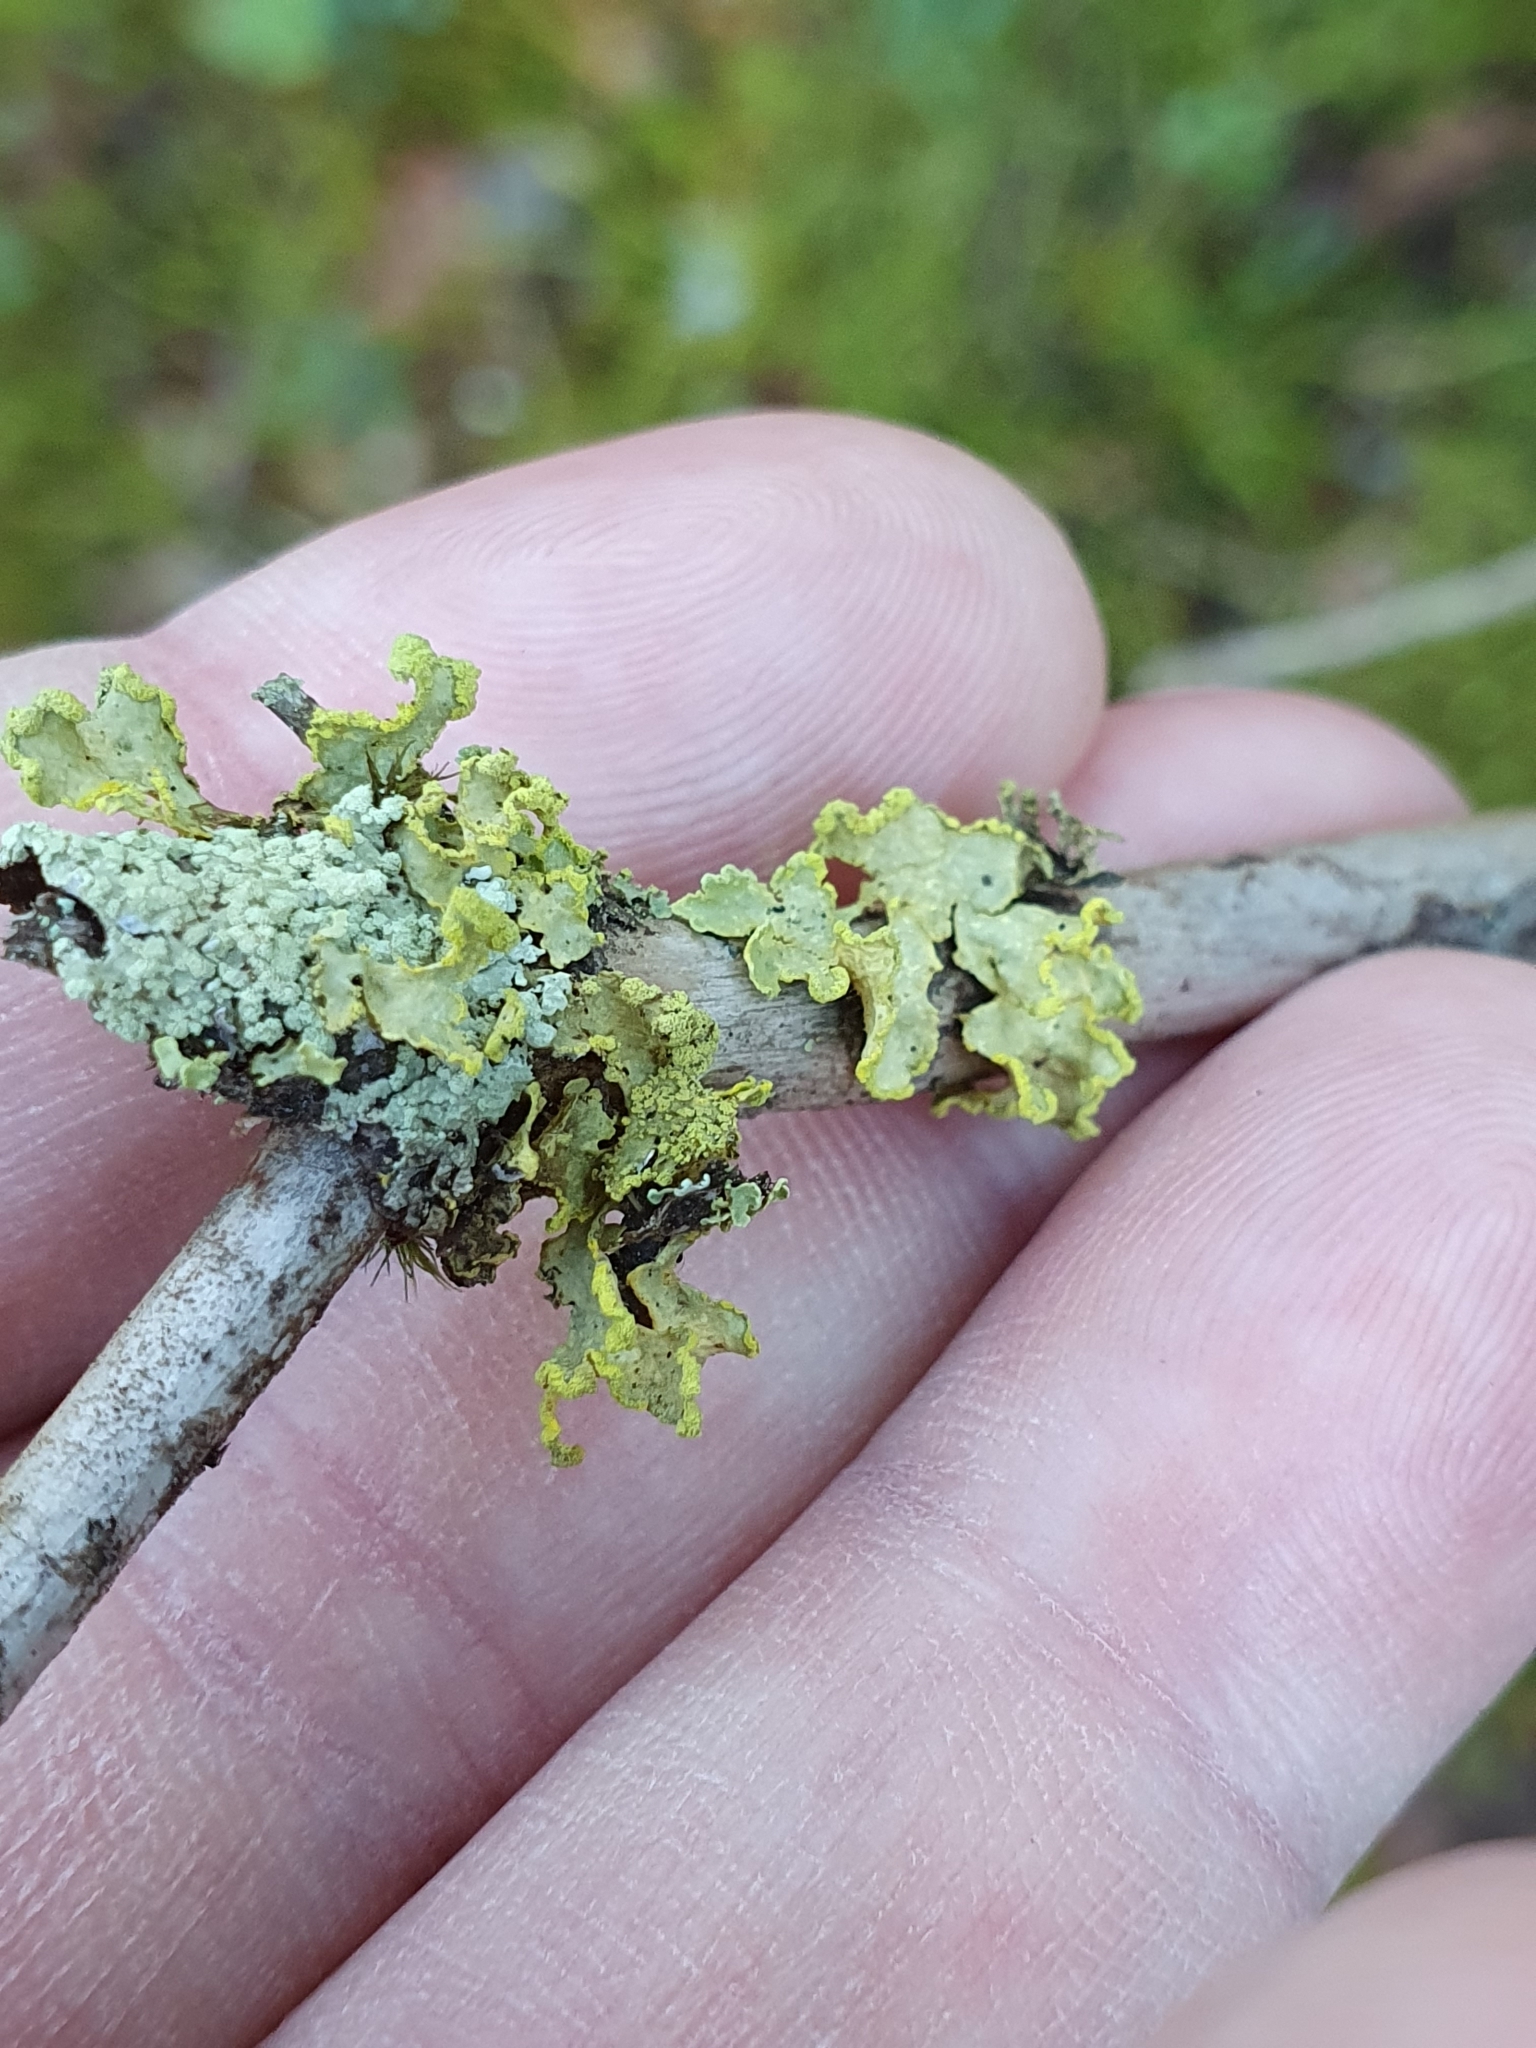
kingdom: Fungi
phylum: Ascomycota
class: Lecanoromycetes
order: Lecanorales
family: Parmeliaceae
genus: Vulpicida
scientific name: Vulpicida pinastri
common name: Powdered sunshine lichen
